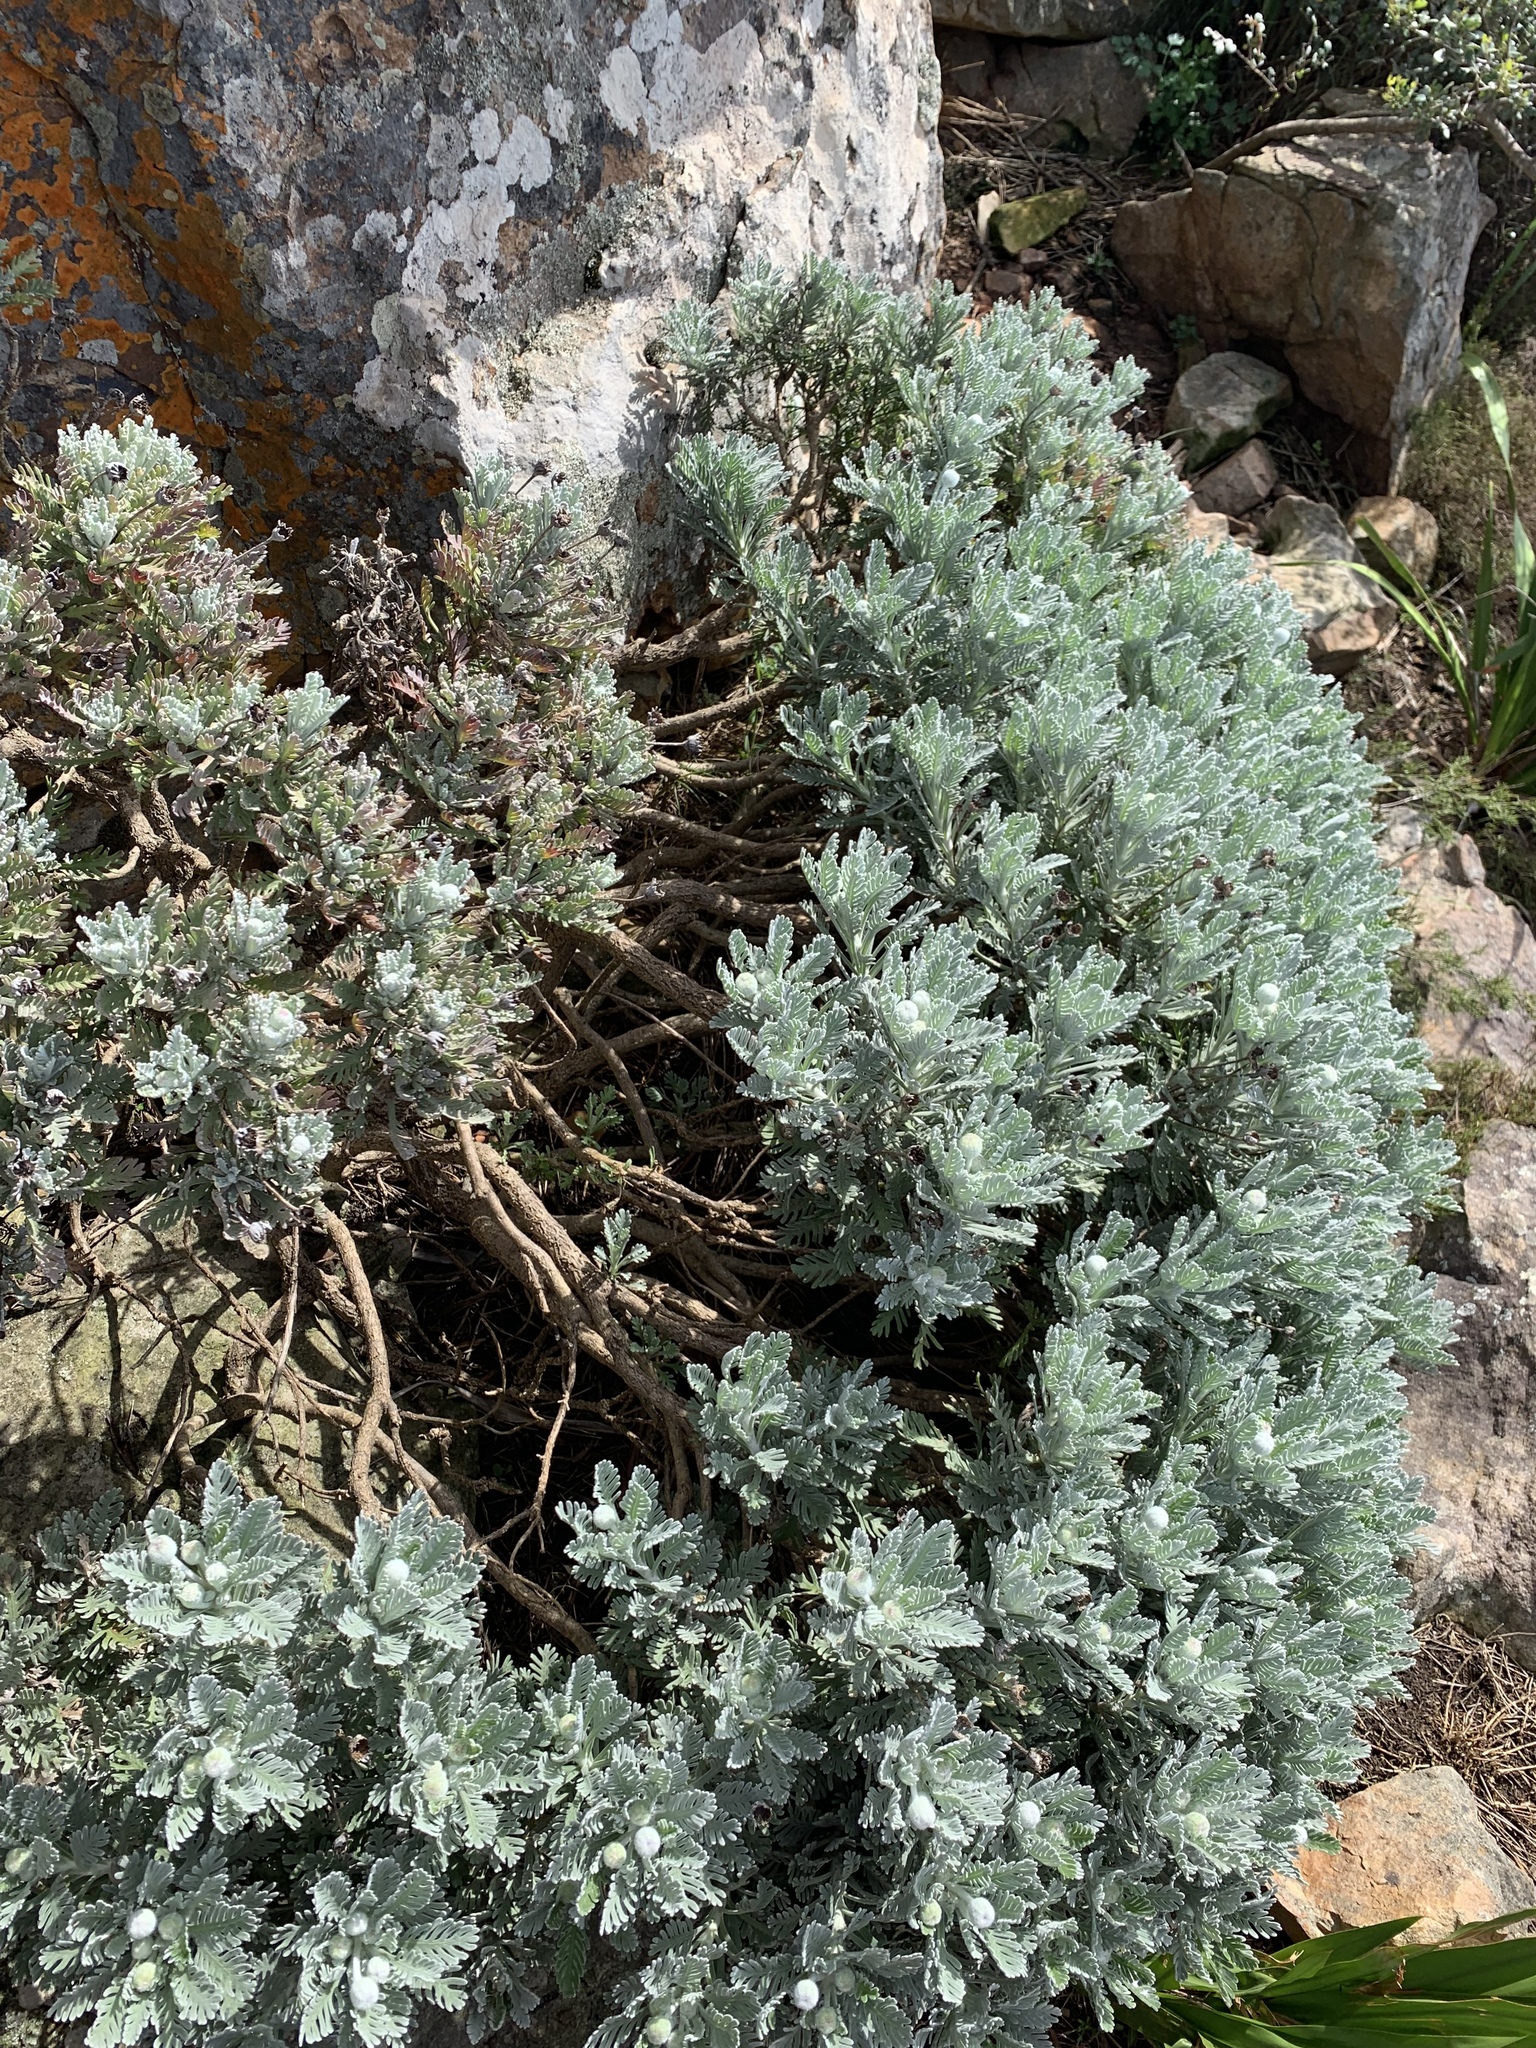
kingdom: Plantae
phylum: Tracheophyta
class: Magnoliopsida
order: Asterales
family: Asteraceae
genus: Euryops
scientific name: Euryops pectinatus
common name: Gray-leaf euryops
